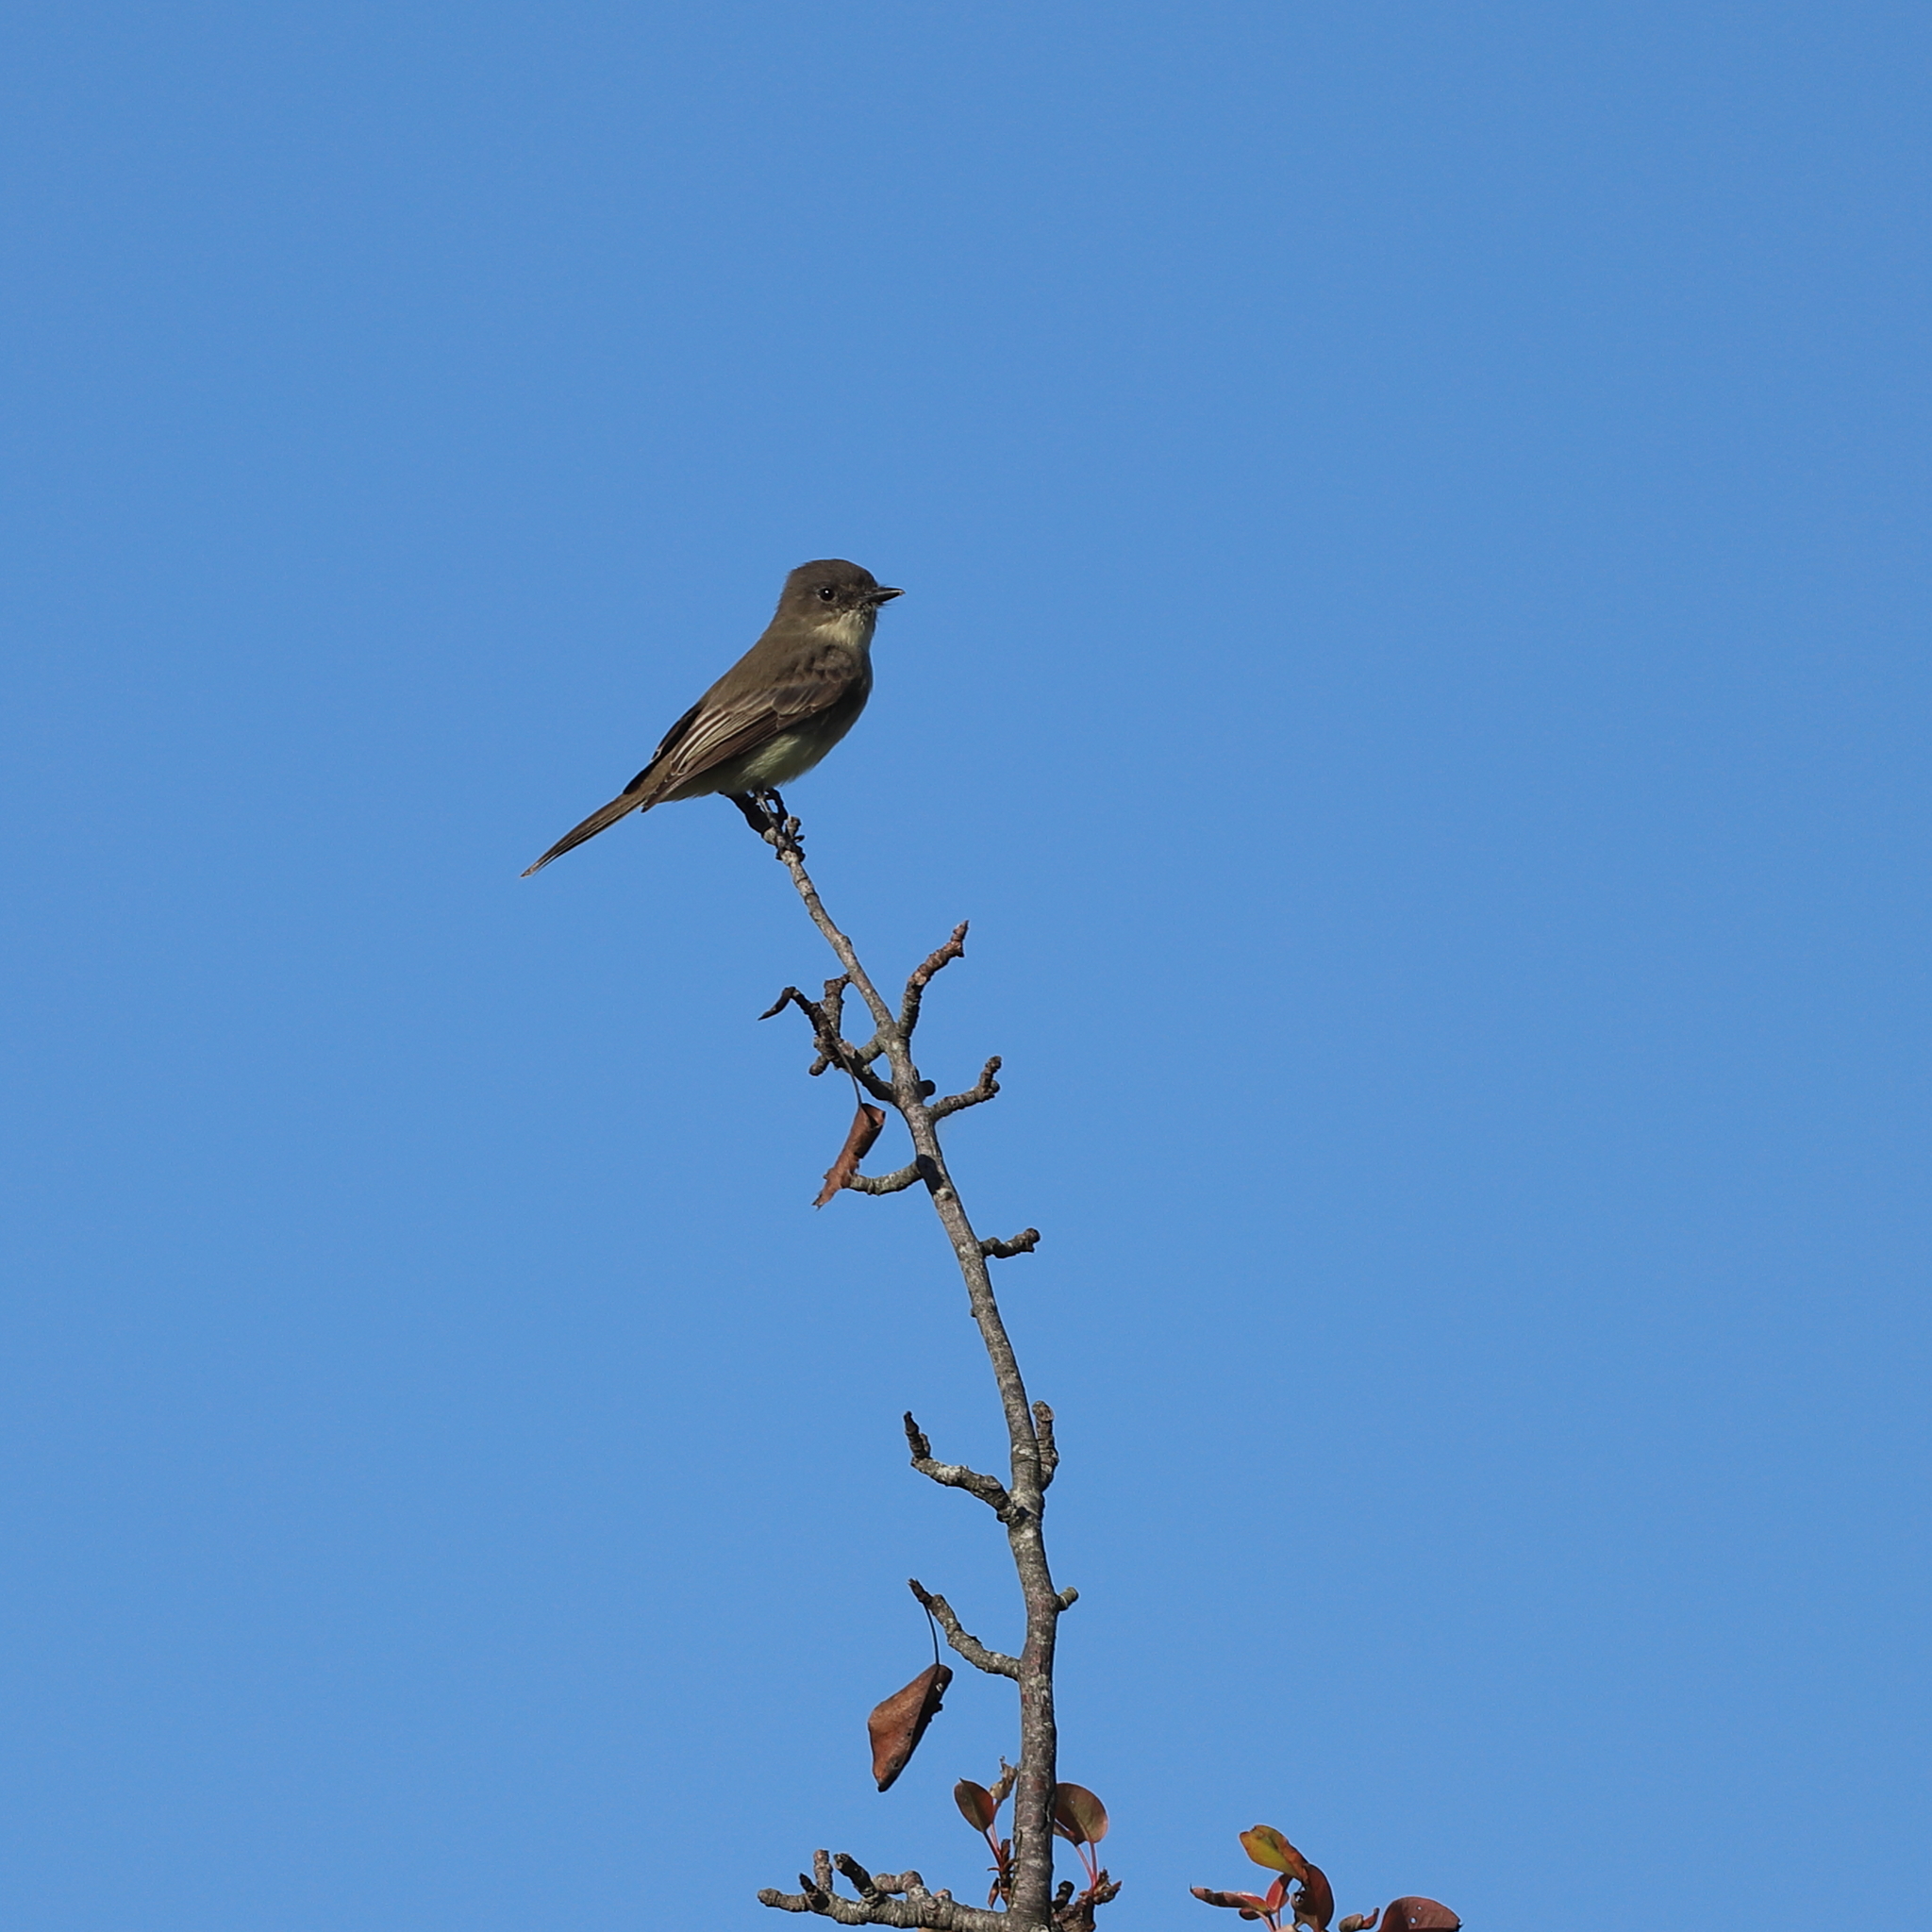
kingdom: Animalia
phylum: Chordata
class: Aves
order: Passeriformes
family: Tyrannidae
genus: Sayornis
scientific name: Sayornis phoebe
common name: Eastern phoebe
